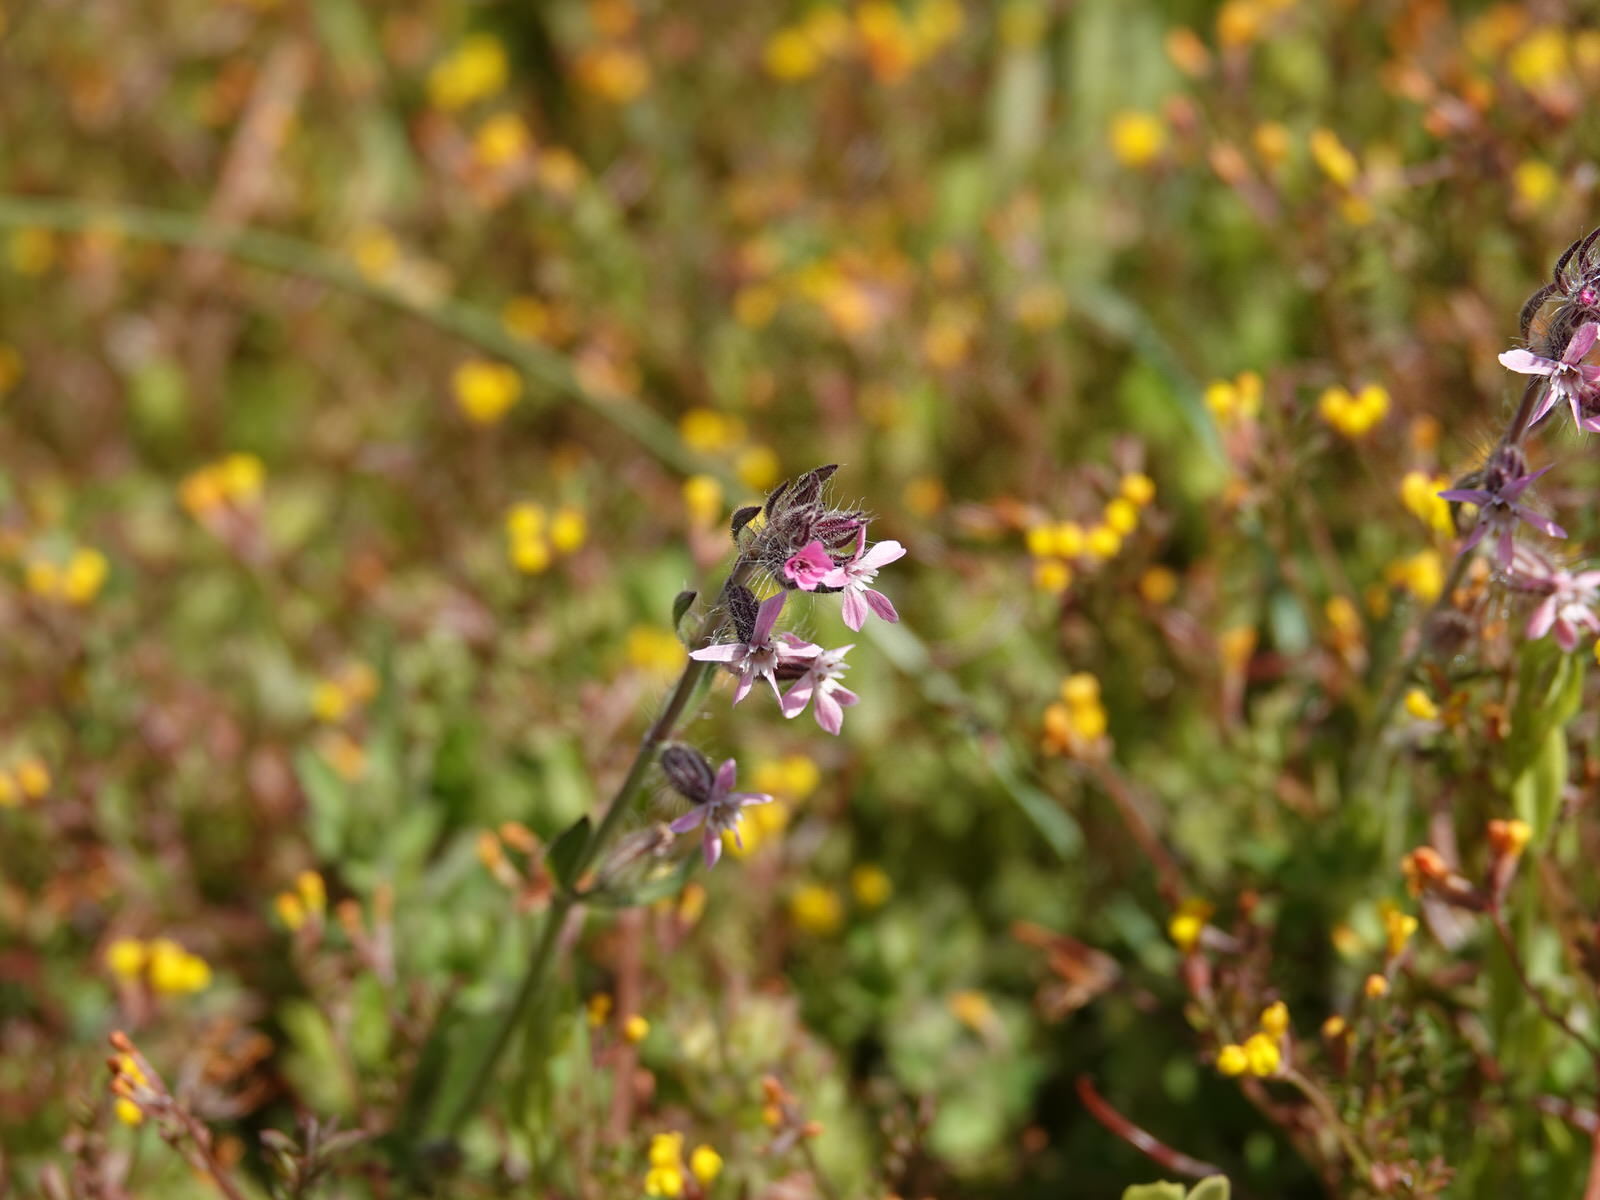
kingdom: Plantae
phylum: Tracheophyta
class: Magnoliopsida
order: Caryophyllales
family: Caryophyllaceae
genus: Silene
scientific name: Silene gallica
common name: Small-flowered catchfly
